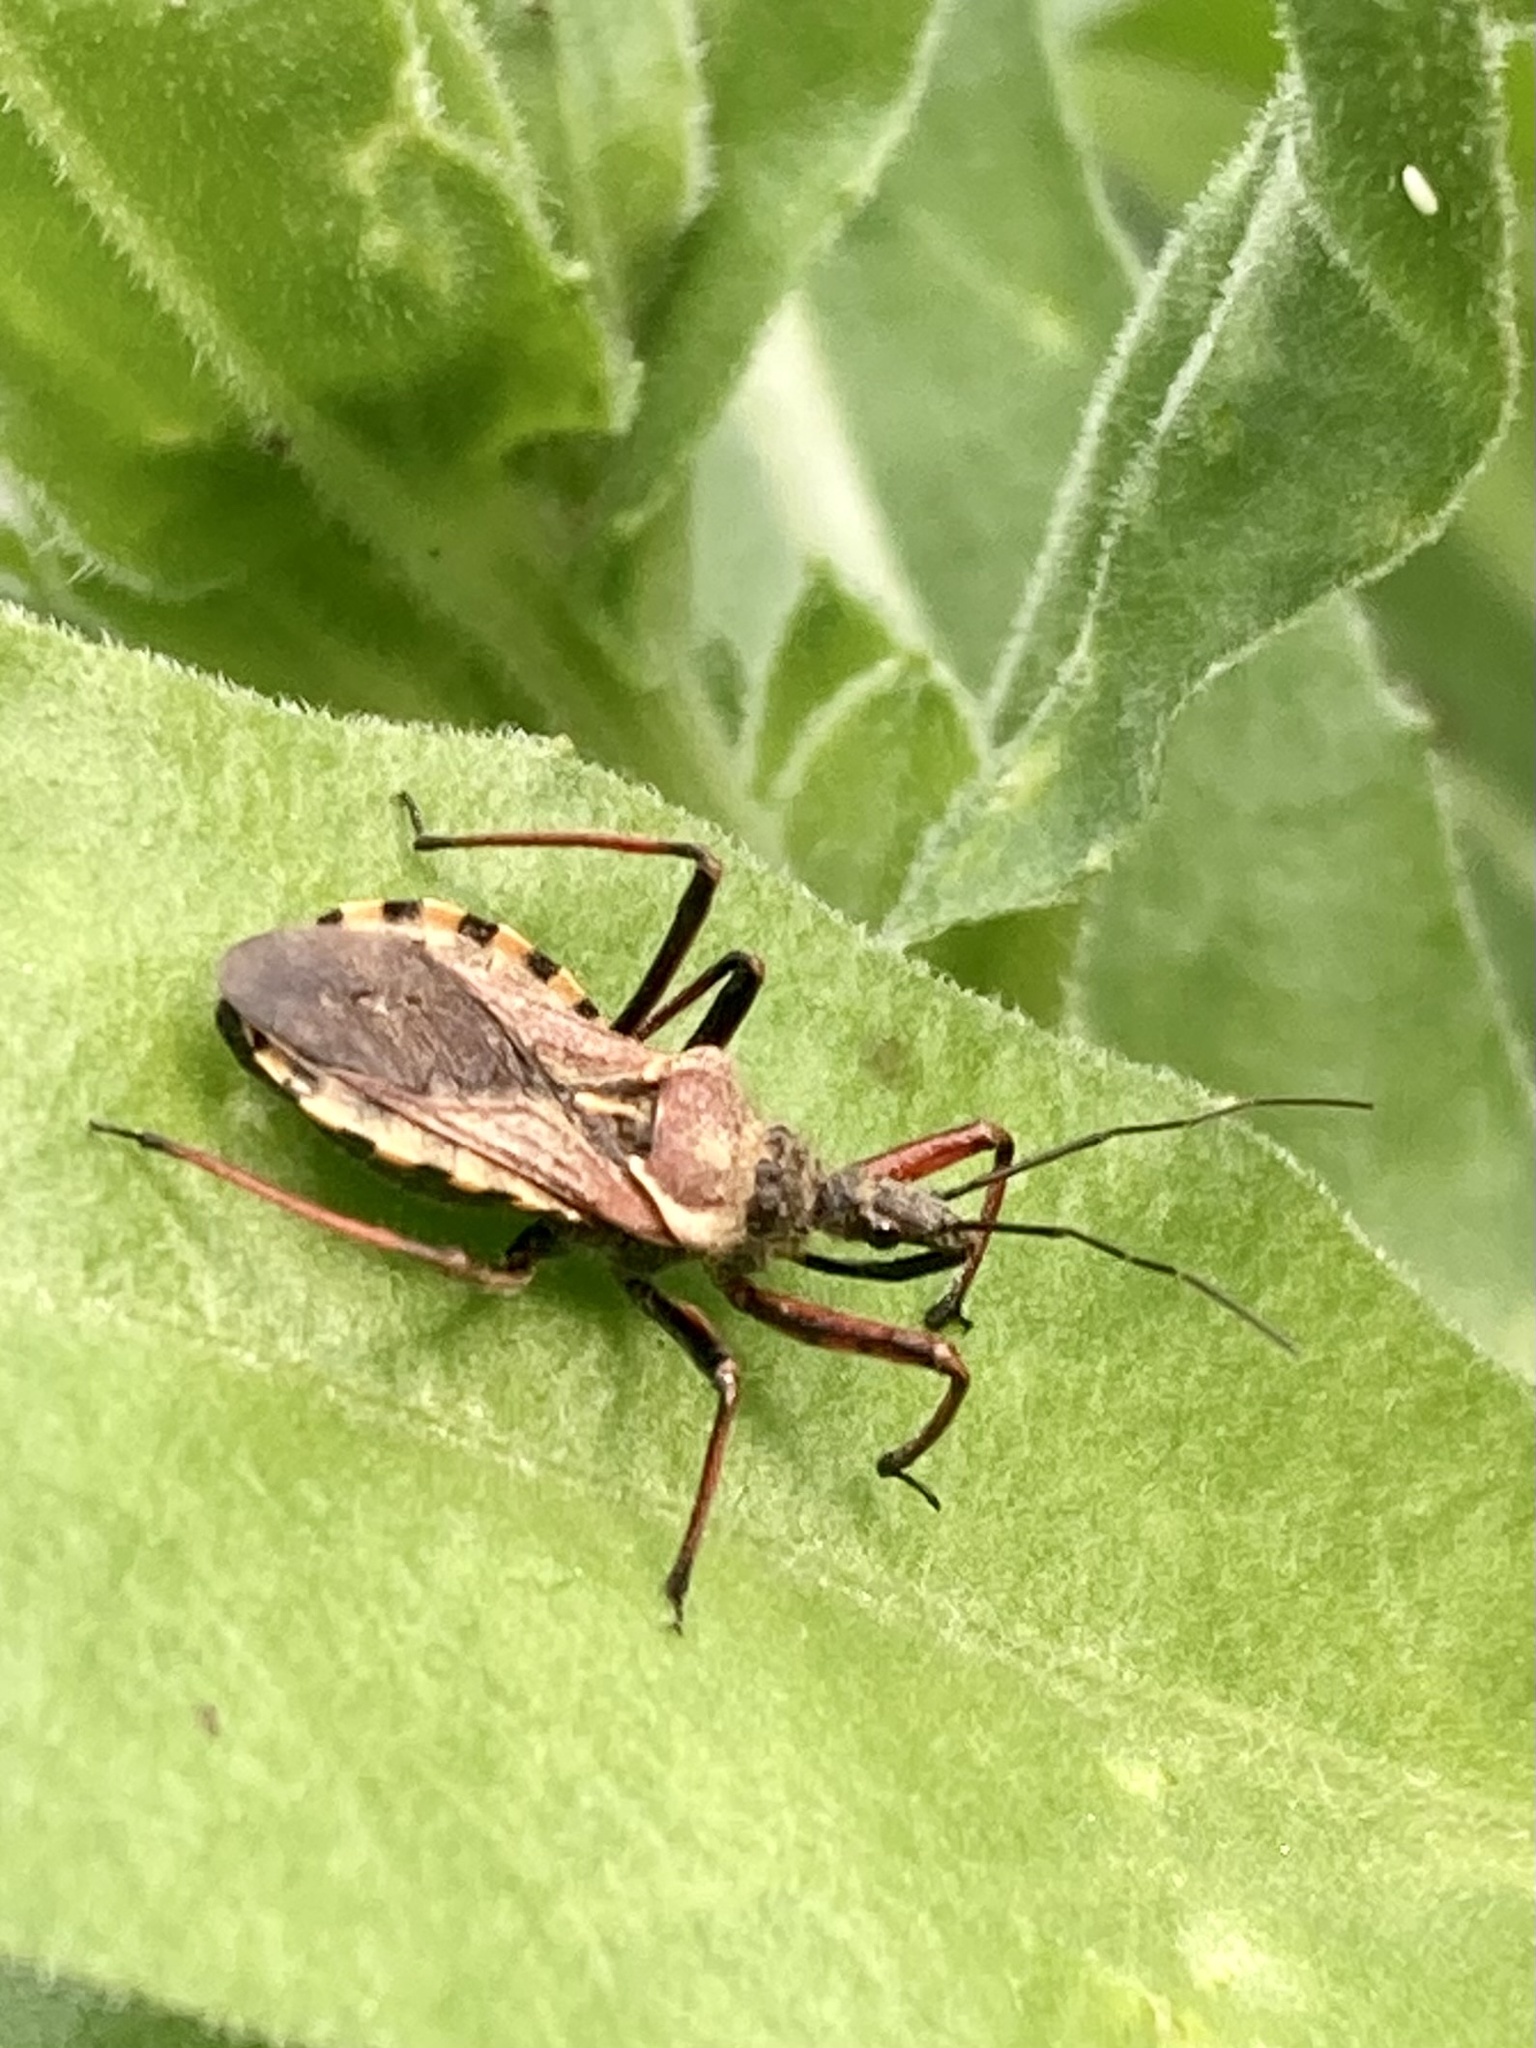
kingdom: Animalia
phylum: Arthropoda
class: Insecta
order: Hemiptera
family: Reduviidae
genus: Rhynocoris
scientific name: Rhynocoris erythropus
